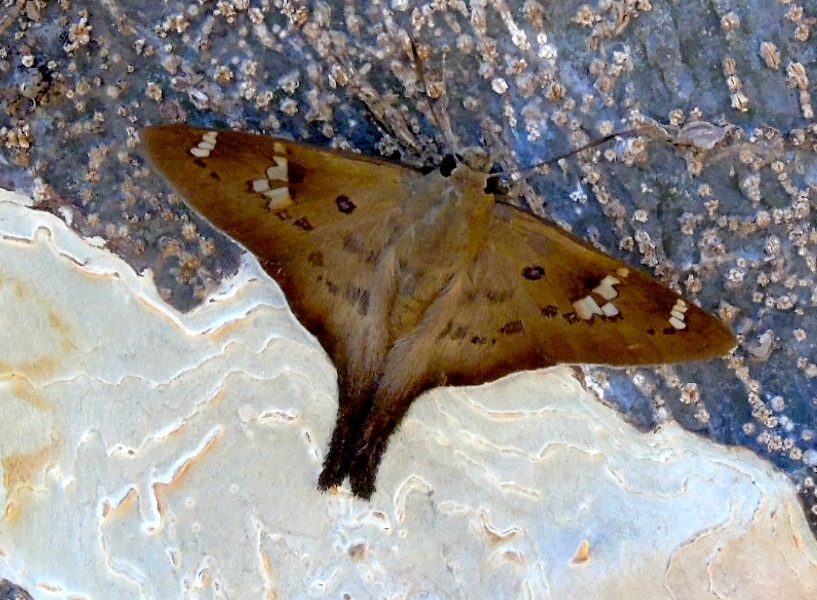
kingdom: Animalia
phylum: Arthropoda
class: Insecta
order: Lepidoptera
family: Hesperiidae
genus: Ectomis
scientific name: Ectomis
